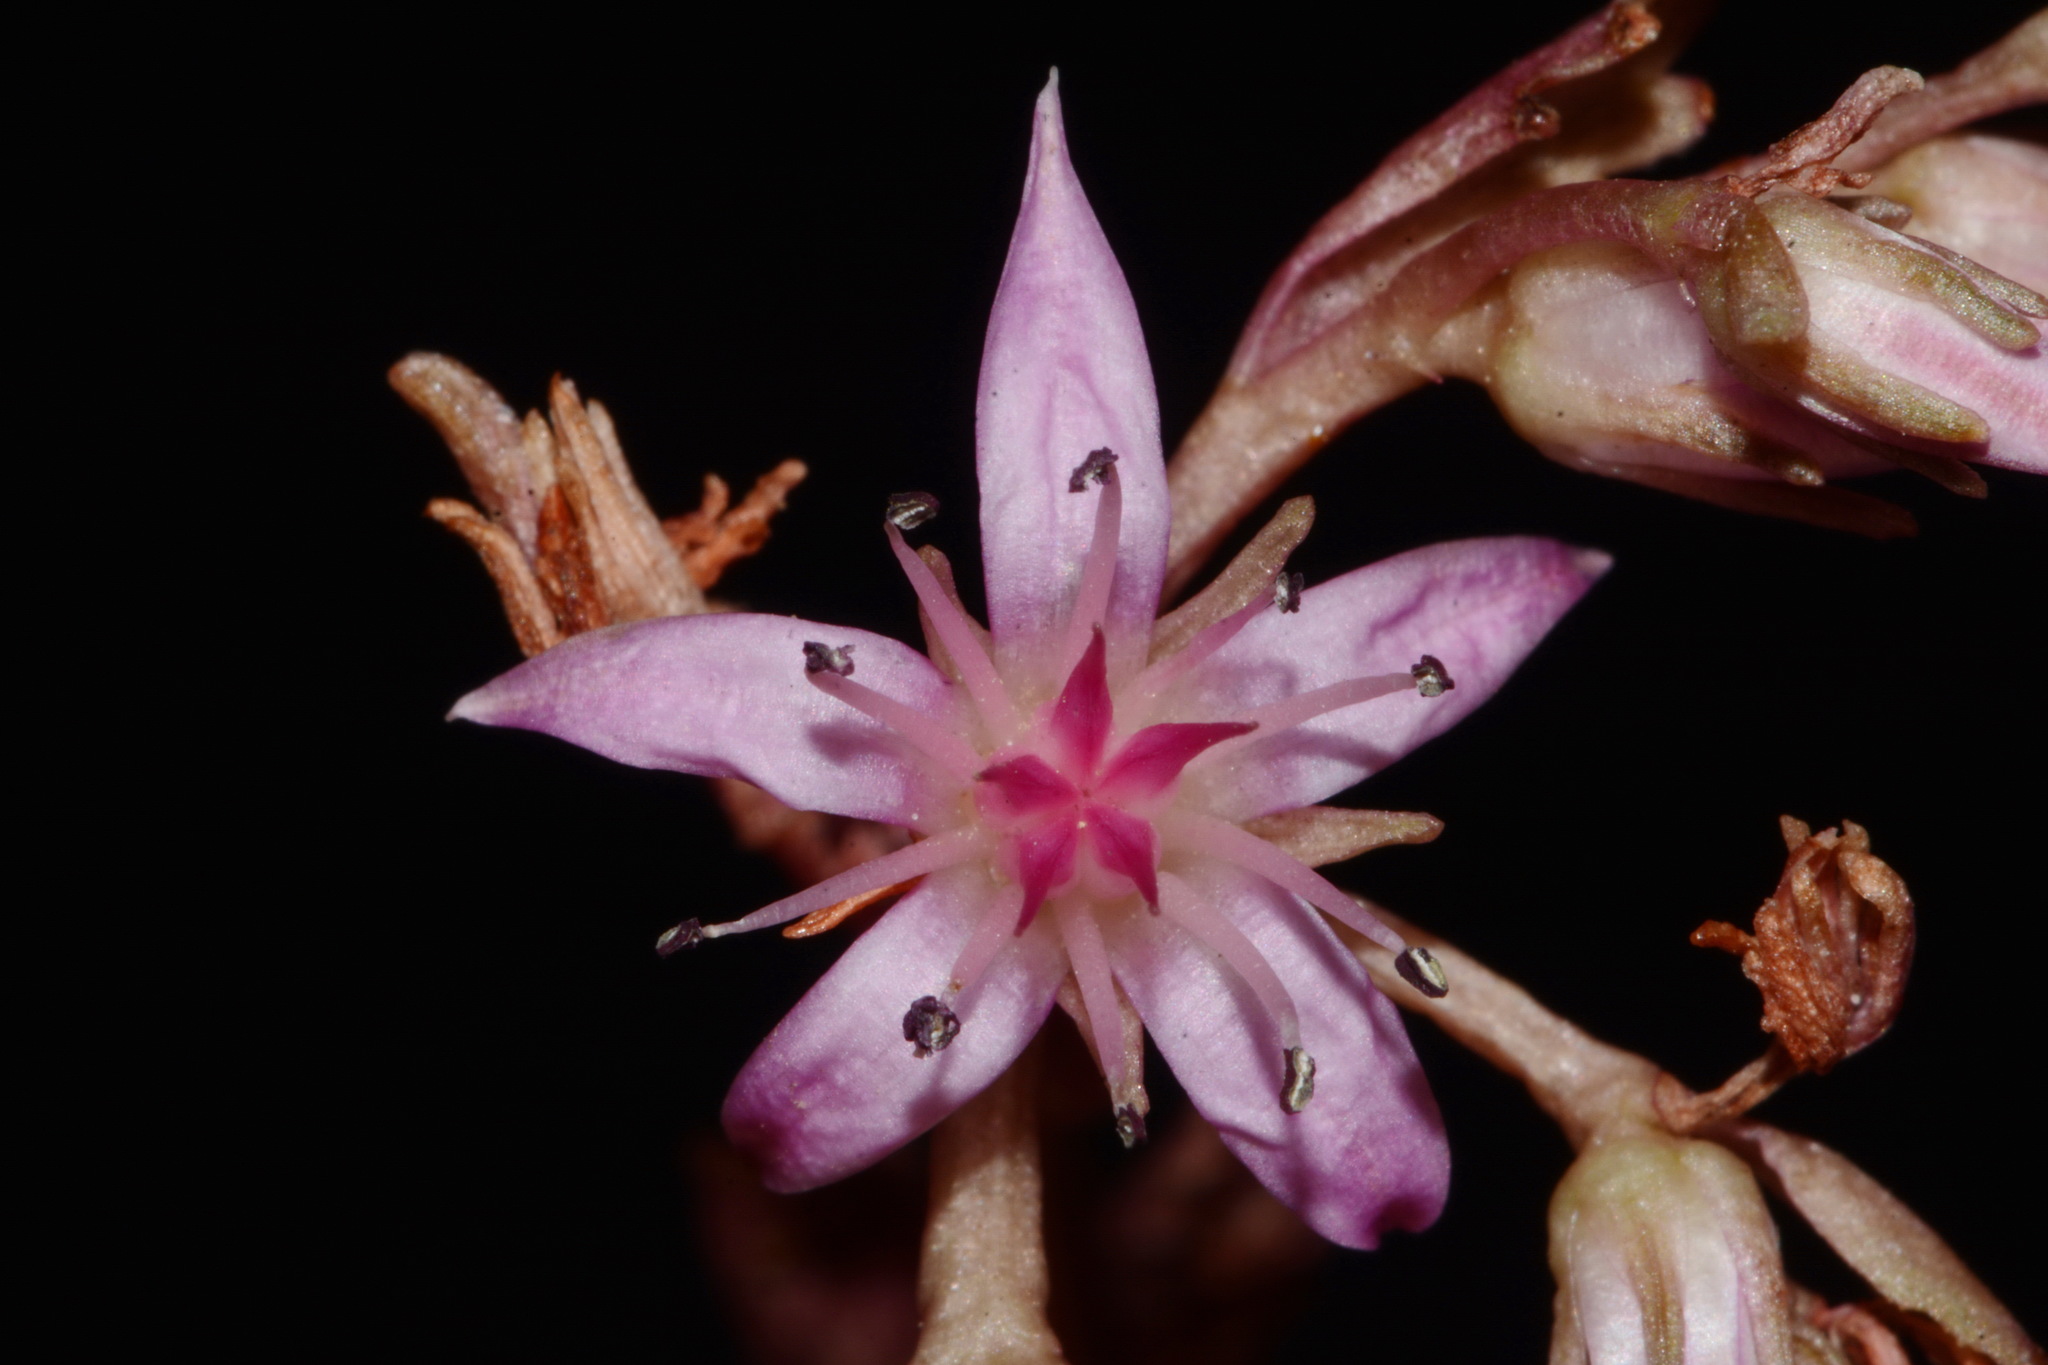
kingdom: Plantae
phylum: Tracheophyta
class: Magnoliopsida
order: Saxifragales
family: Crassulaceae
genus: Phedimus
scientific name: Phedimus spurius
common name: Caucasian stonecrop
